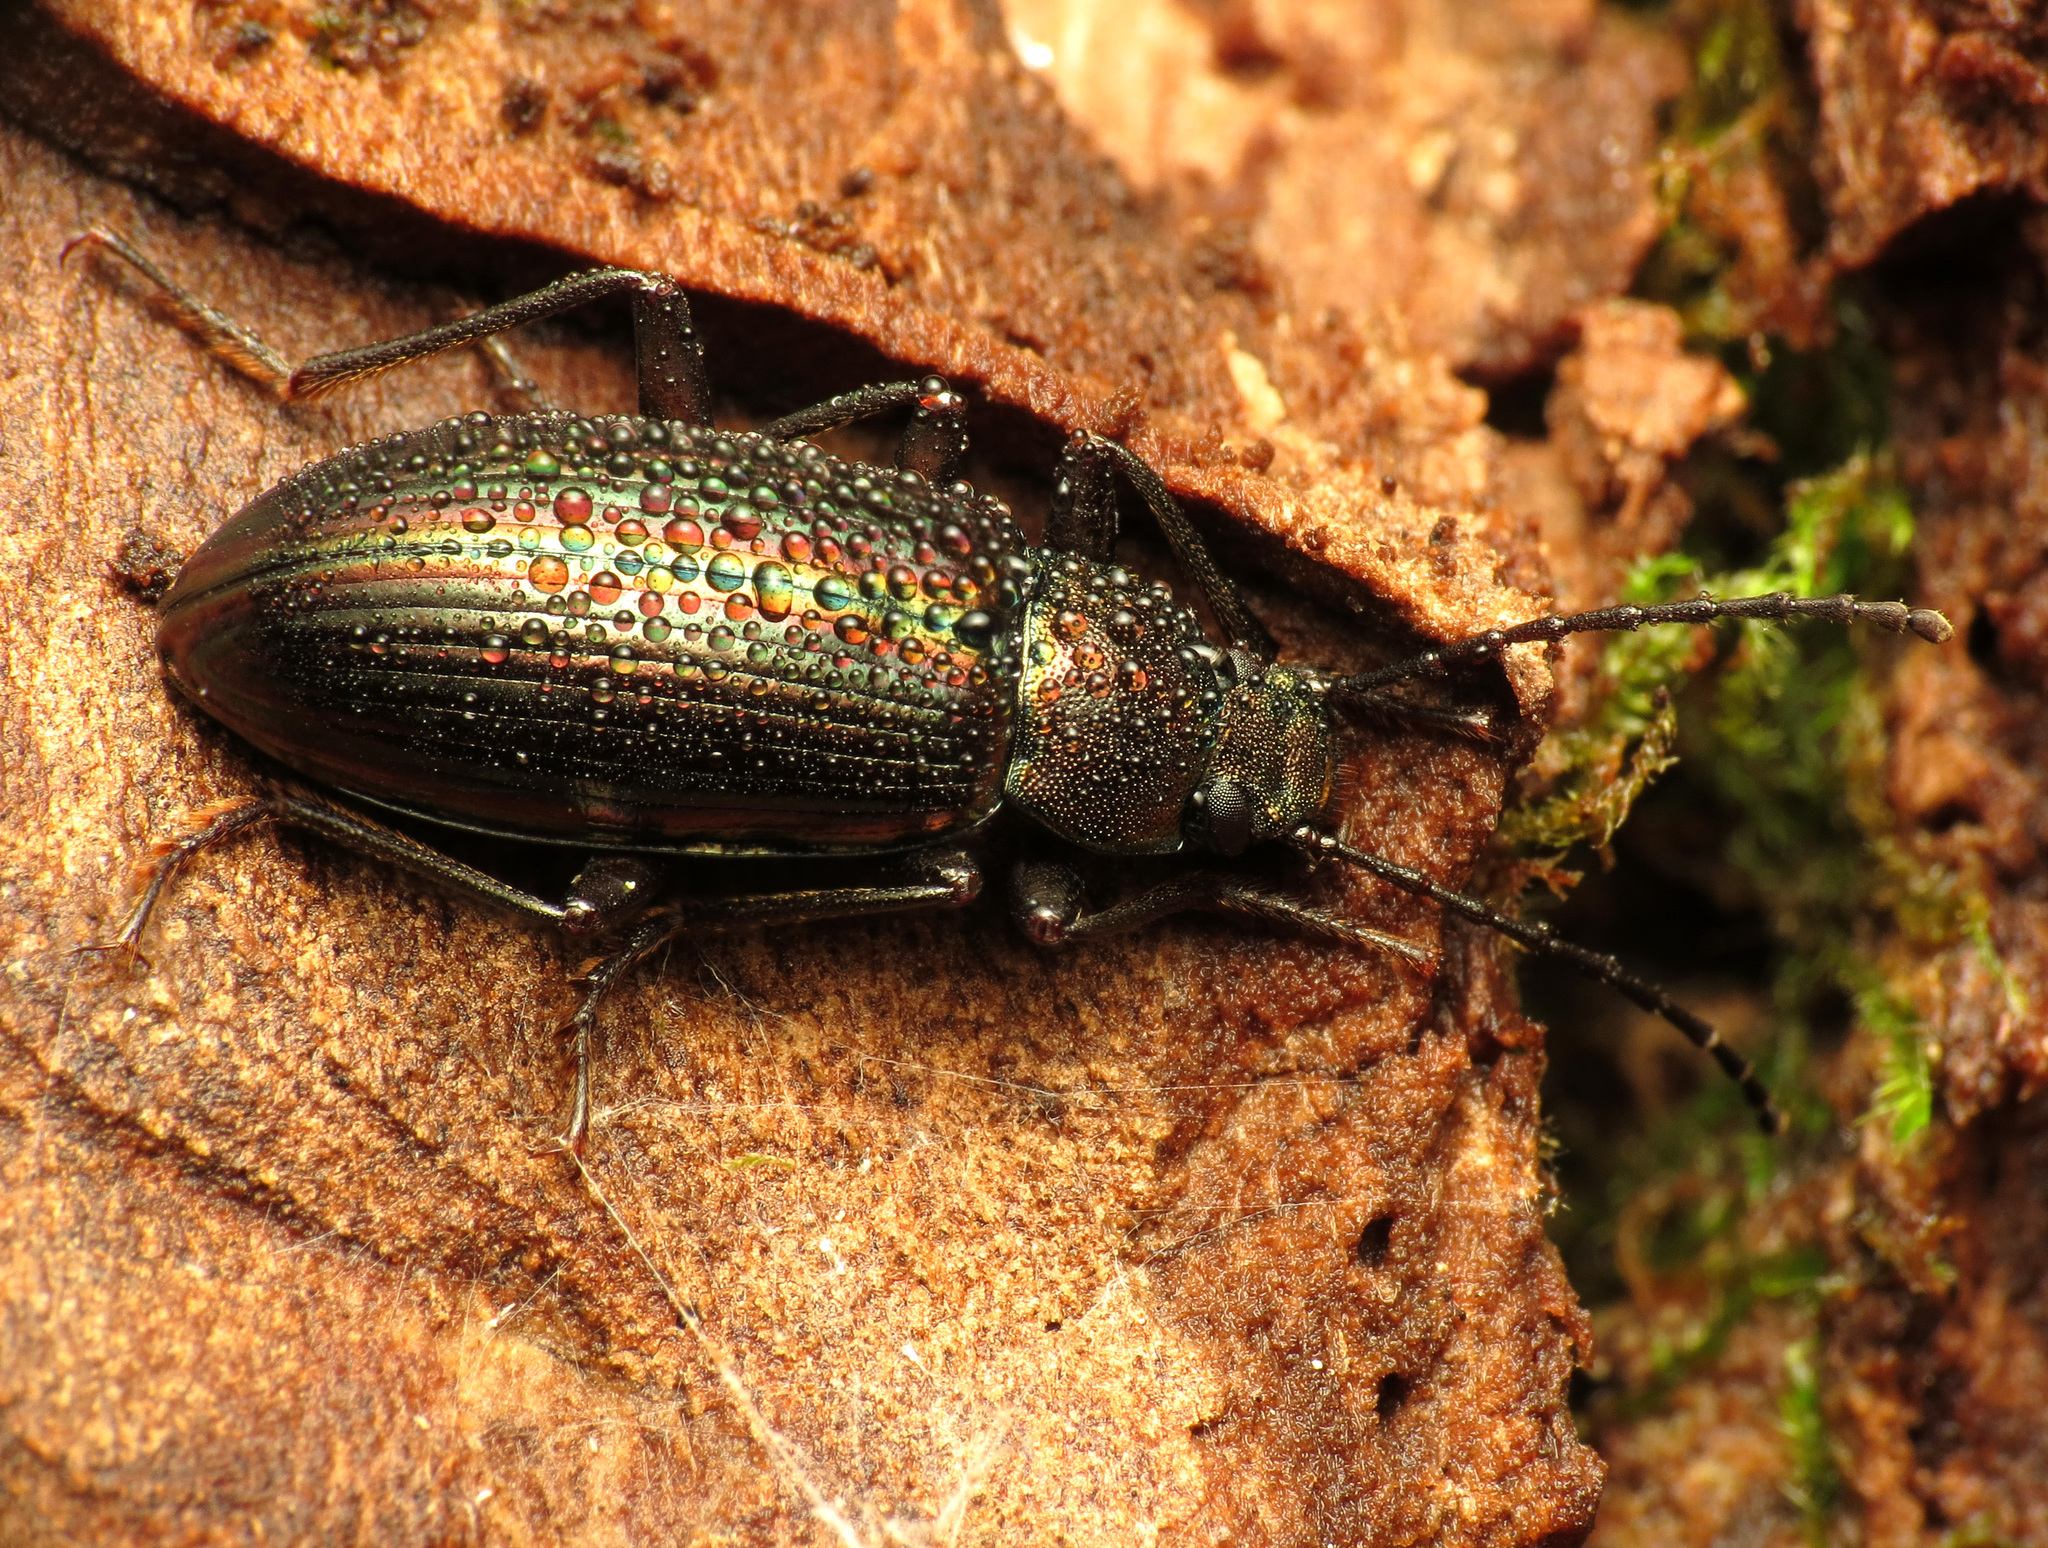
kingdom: Animalia
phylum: Arthropoda
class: Insecta
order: Coleoptera
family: Tenebrionidae
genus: Tarpela
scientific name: Tarpela micans
